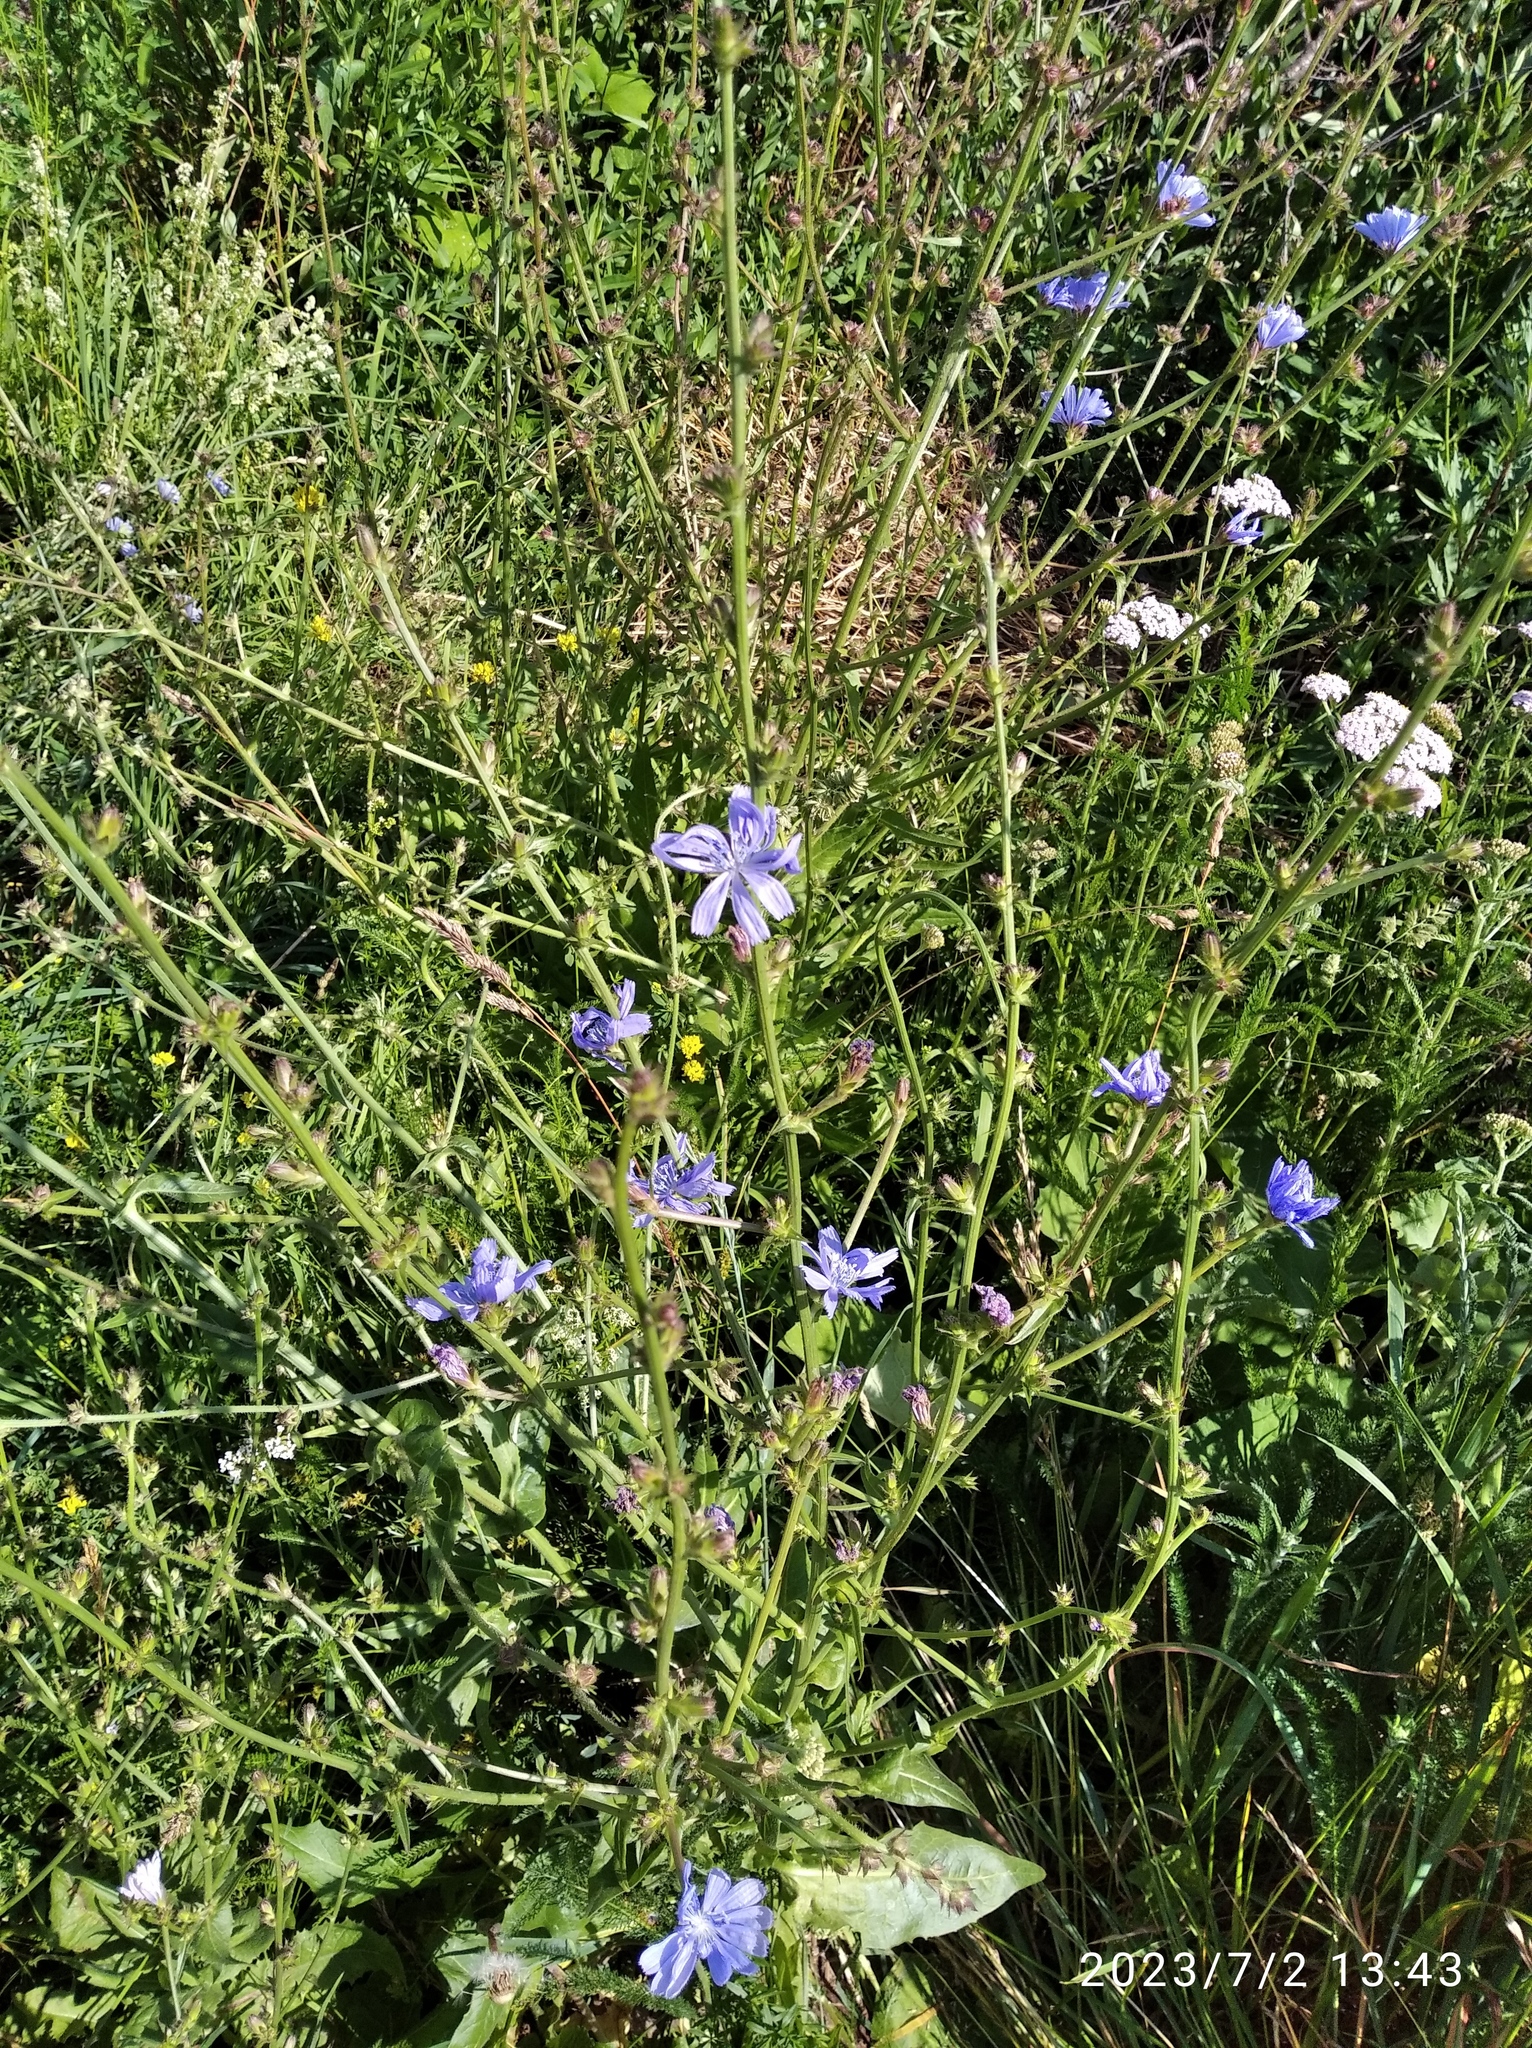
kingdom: Plantae
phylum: Tracheophyta
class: Magnoliopsida
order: Asterales
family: Asteraceae
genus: Cichorium
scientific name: Cichorium intybus
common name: Chicory
